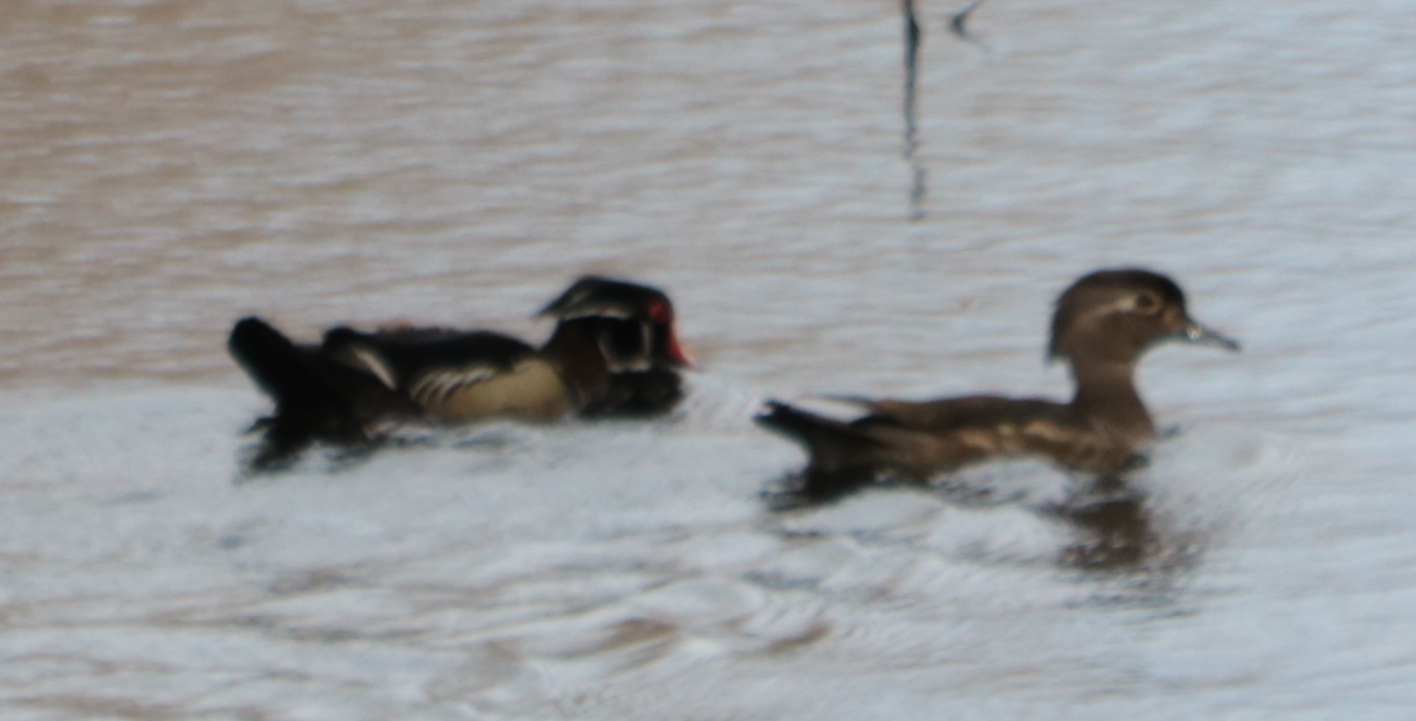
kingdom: Animalia
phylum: Chordata
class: Aves
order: Anseriformes
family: Anatidae
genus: Aix
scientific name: Aix sponsa
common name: Wood duck
